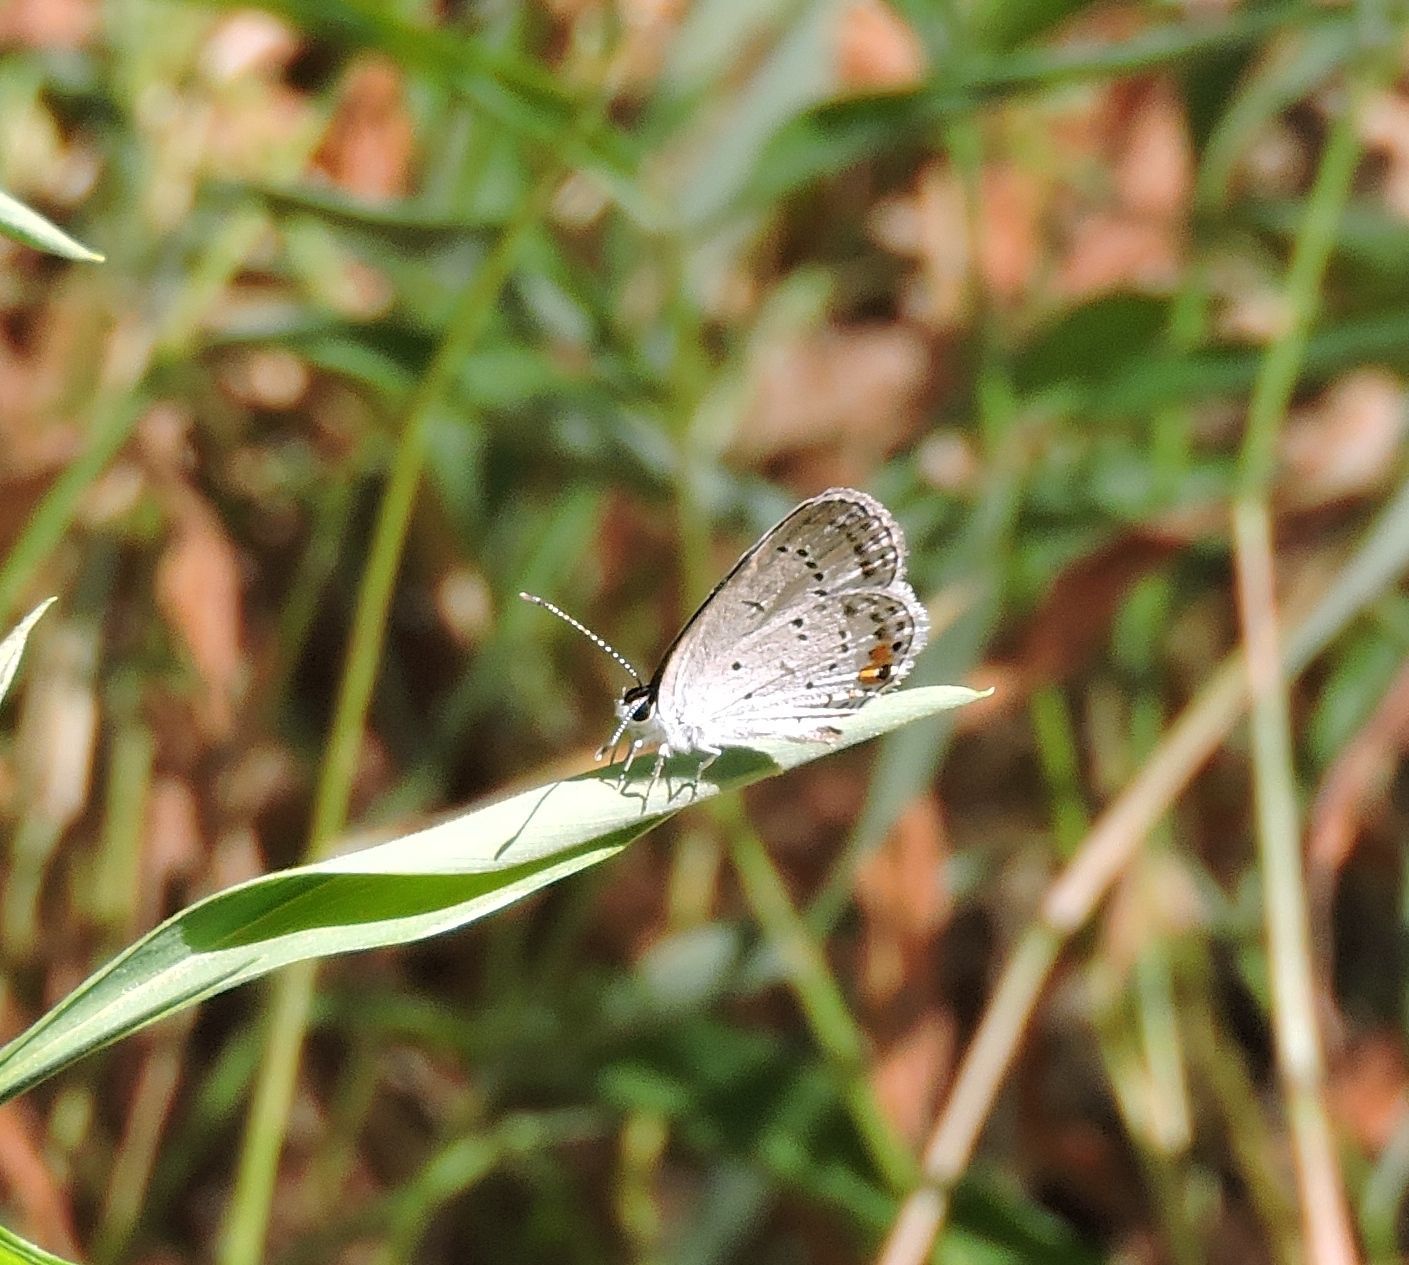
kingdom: Animalia
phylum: Arthropoda
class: Insecta
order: Lepidoptera
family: Lycaenidae
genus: Elkalyce
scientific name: Elkalyce comyntas
